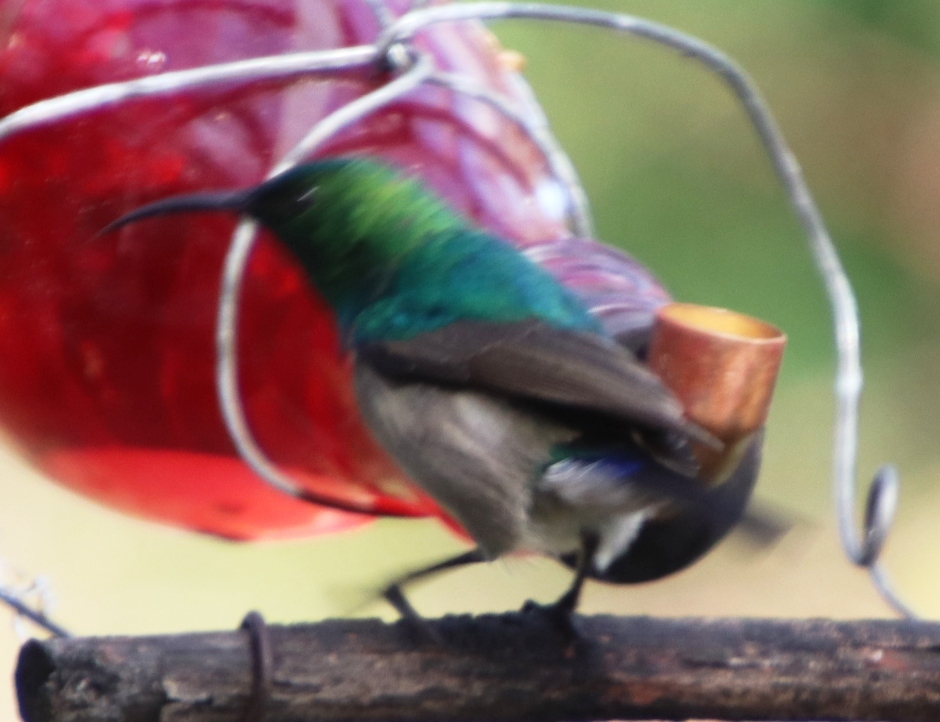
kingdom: Animalia
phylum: Chordata
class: Aves
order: Passeriformes
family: Nectariniidae
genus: Cinnyris
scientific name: Cinnyris chalybeus
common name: Southern double-collared sunbird
